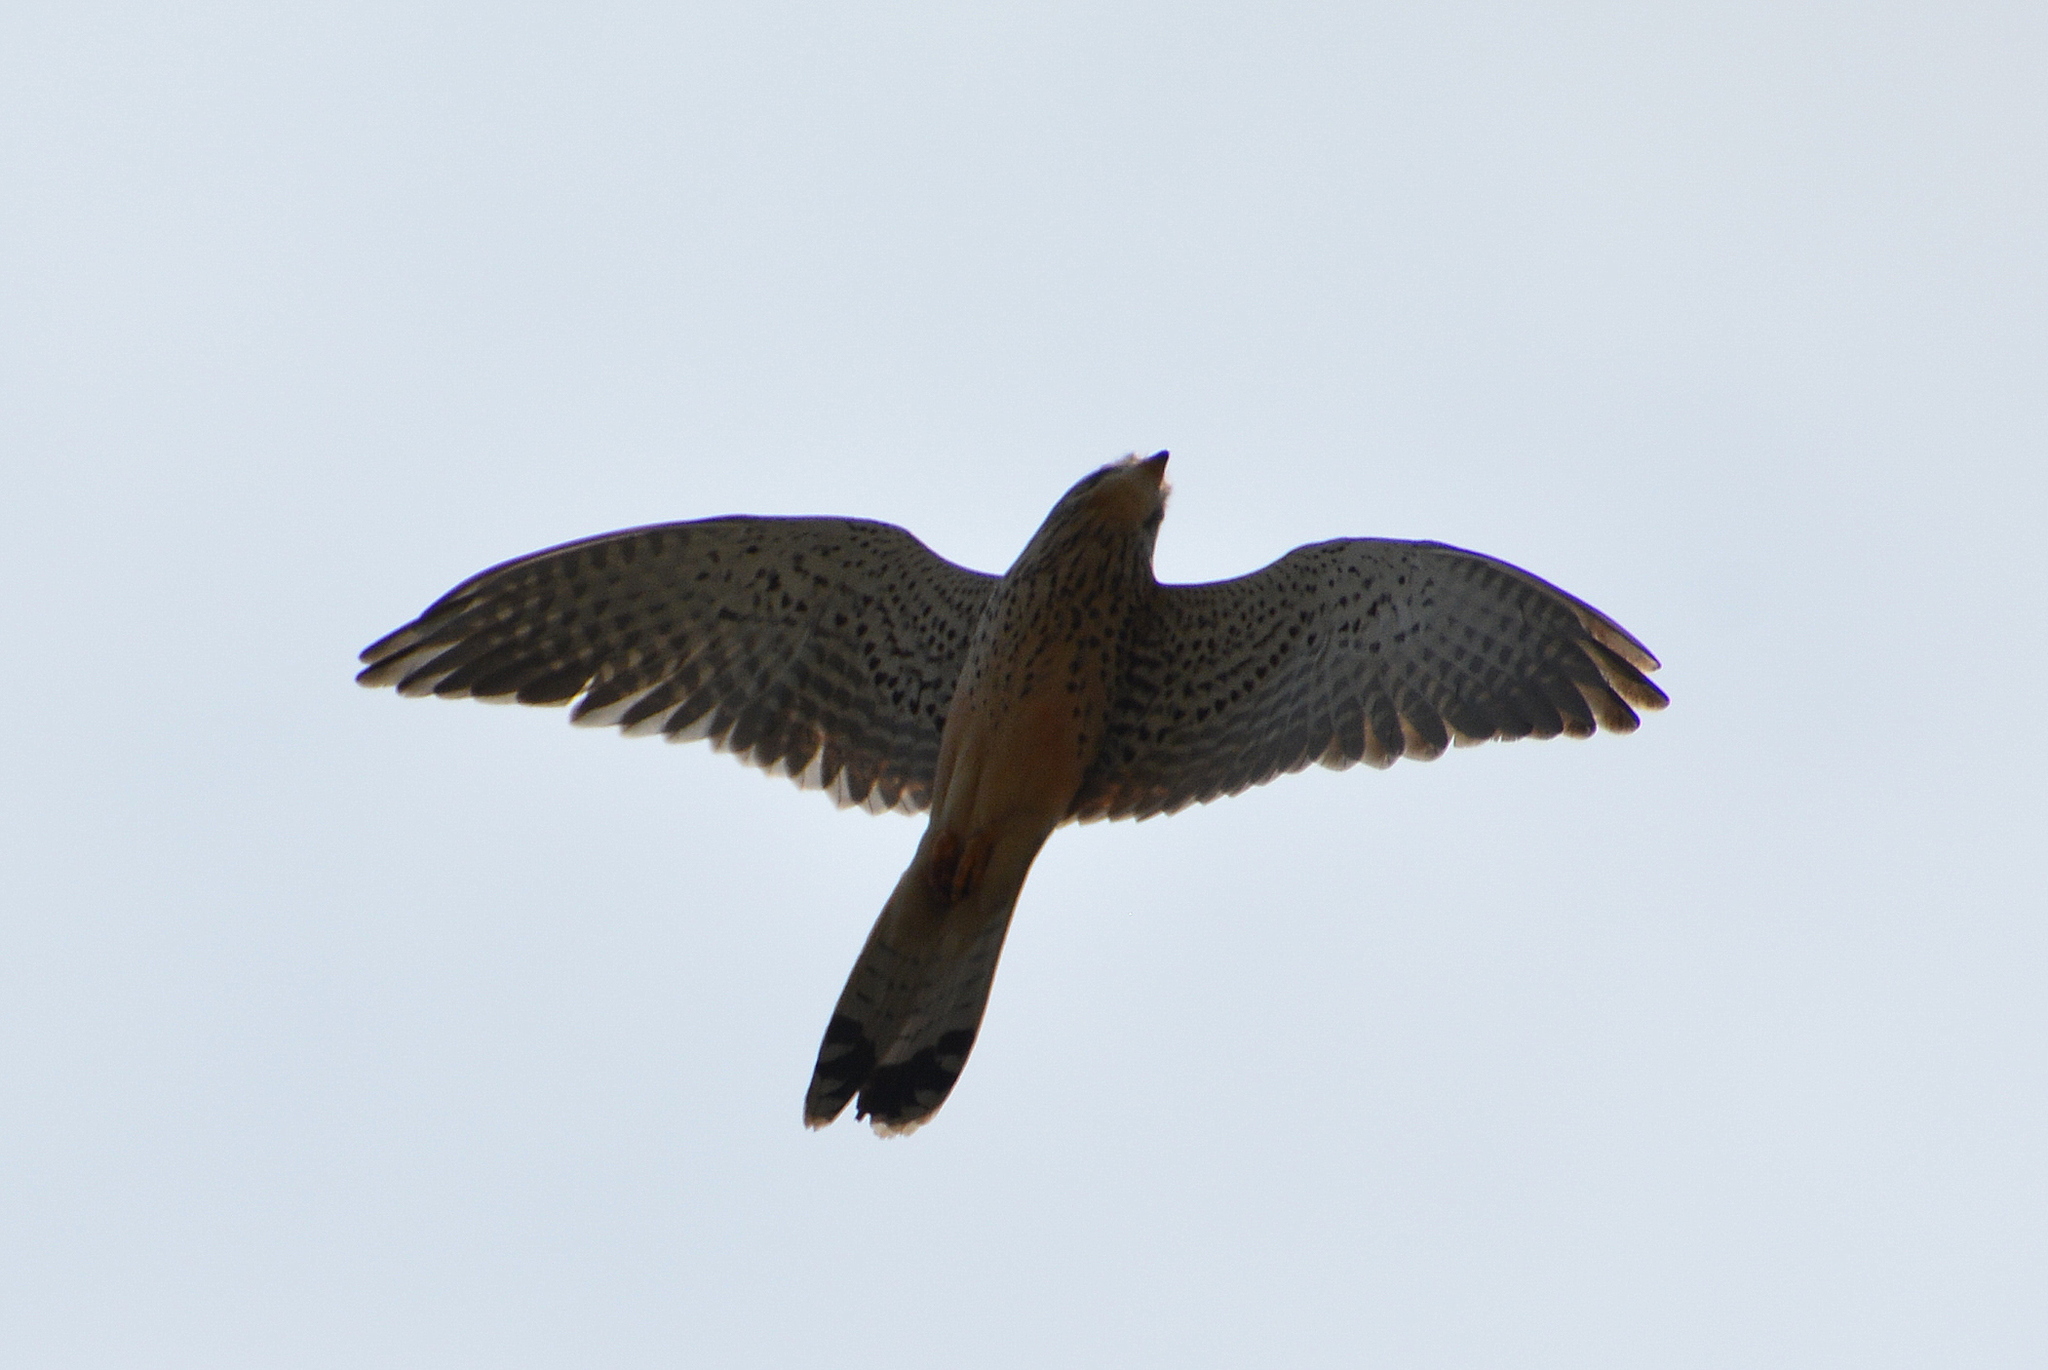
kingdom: Animalia
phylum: Chordata
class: Aves
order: Falconiformes
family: Falconidae
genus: Falco
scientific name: Falco tinnunculus
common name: Common kestrel
